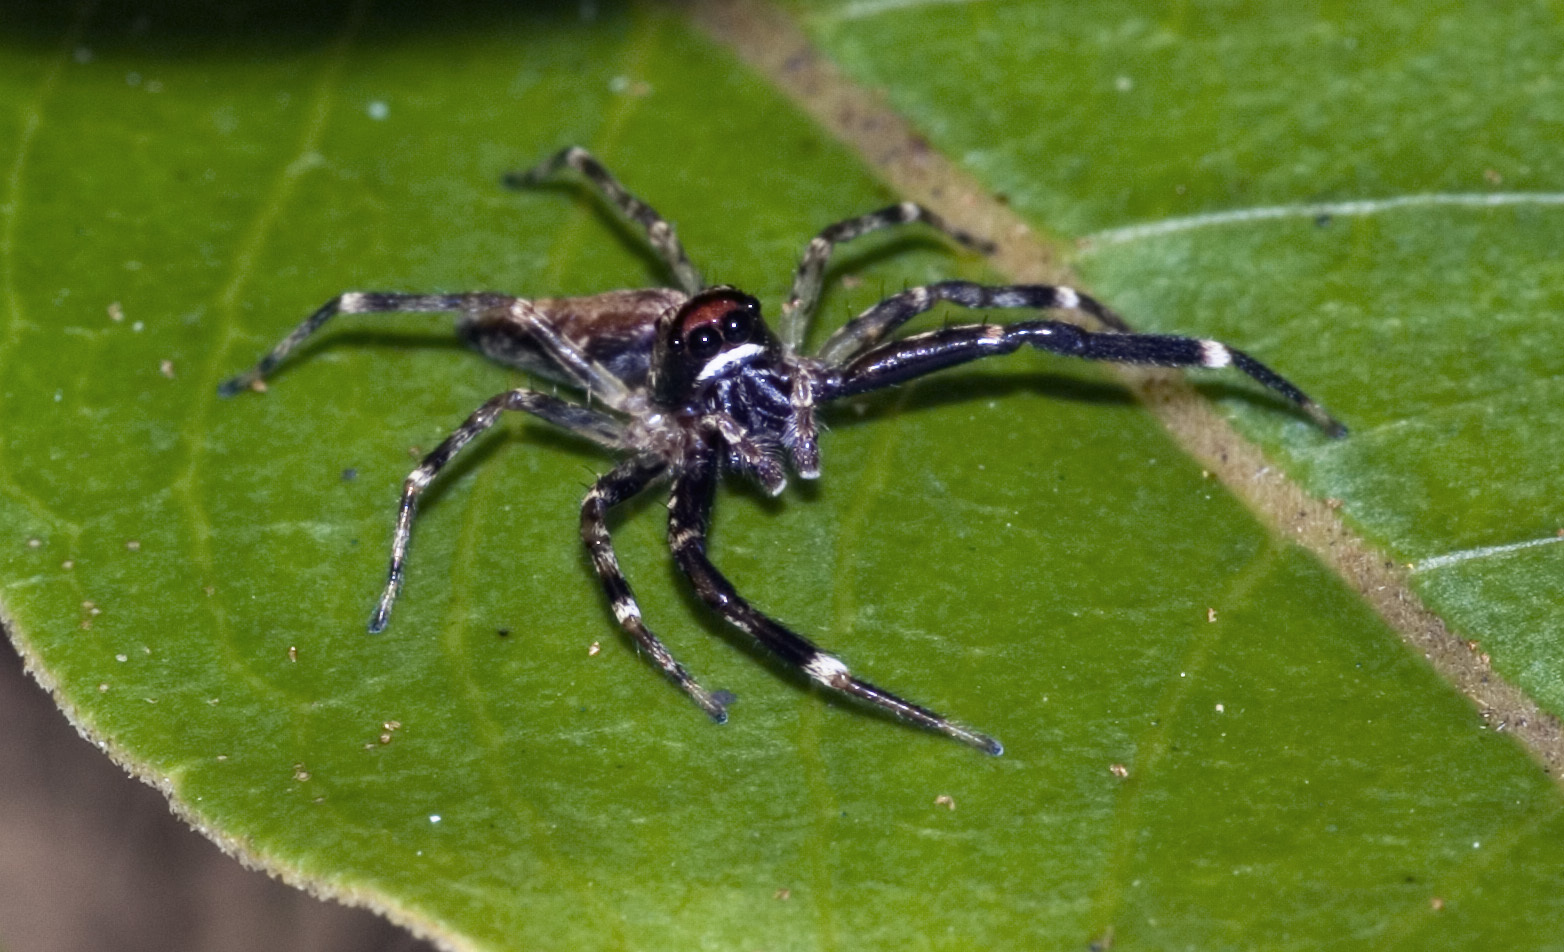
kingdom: Animalia
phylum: Arthropoda
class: Arachnida
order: Araneae
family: Salticidae
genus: Helpis
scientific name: Helpis minitabunda
